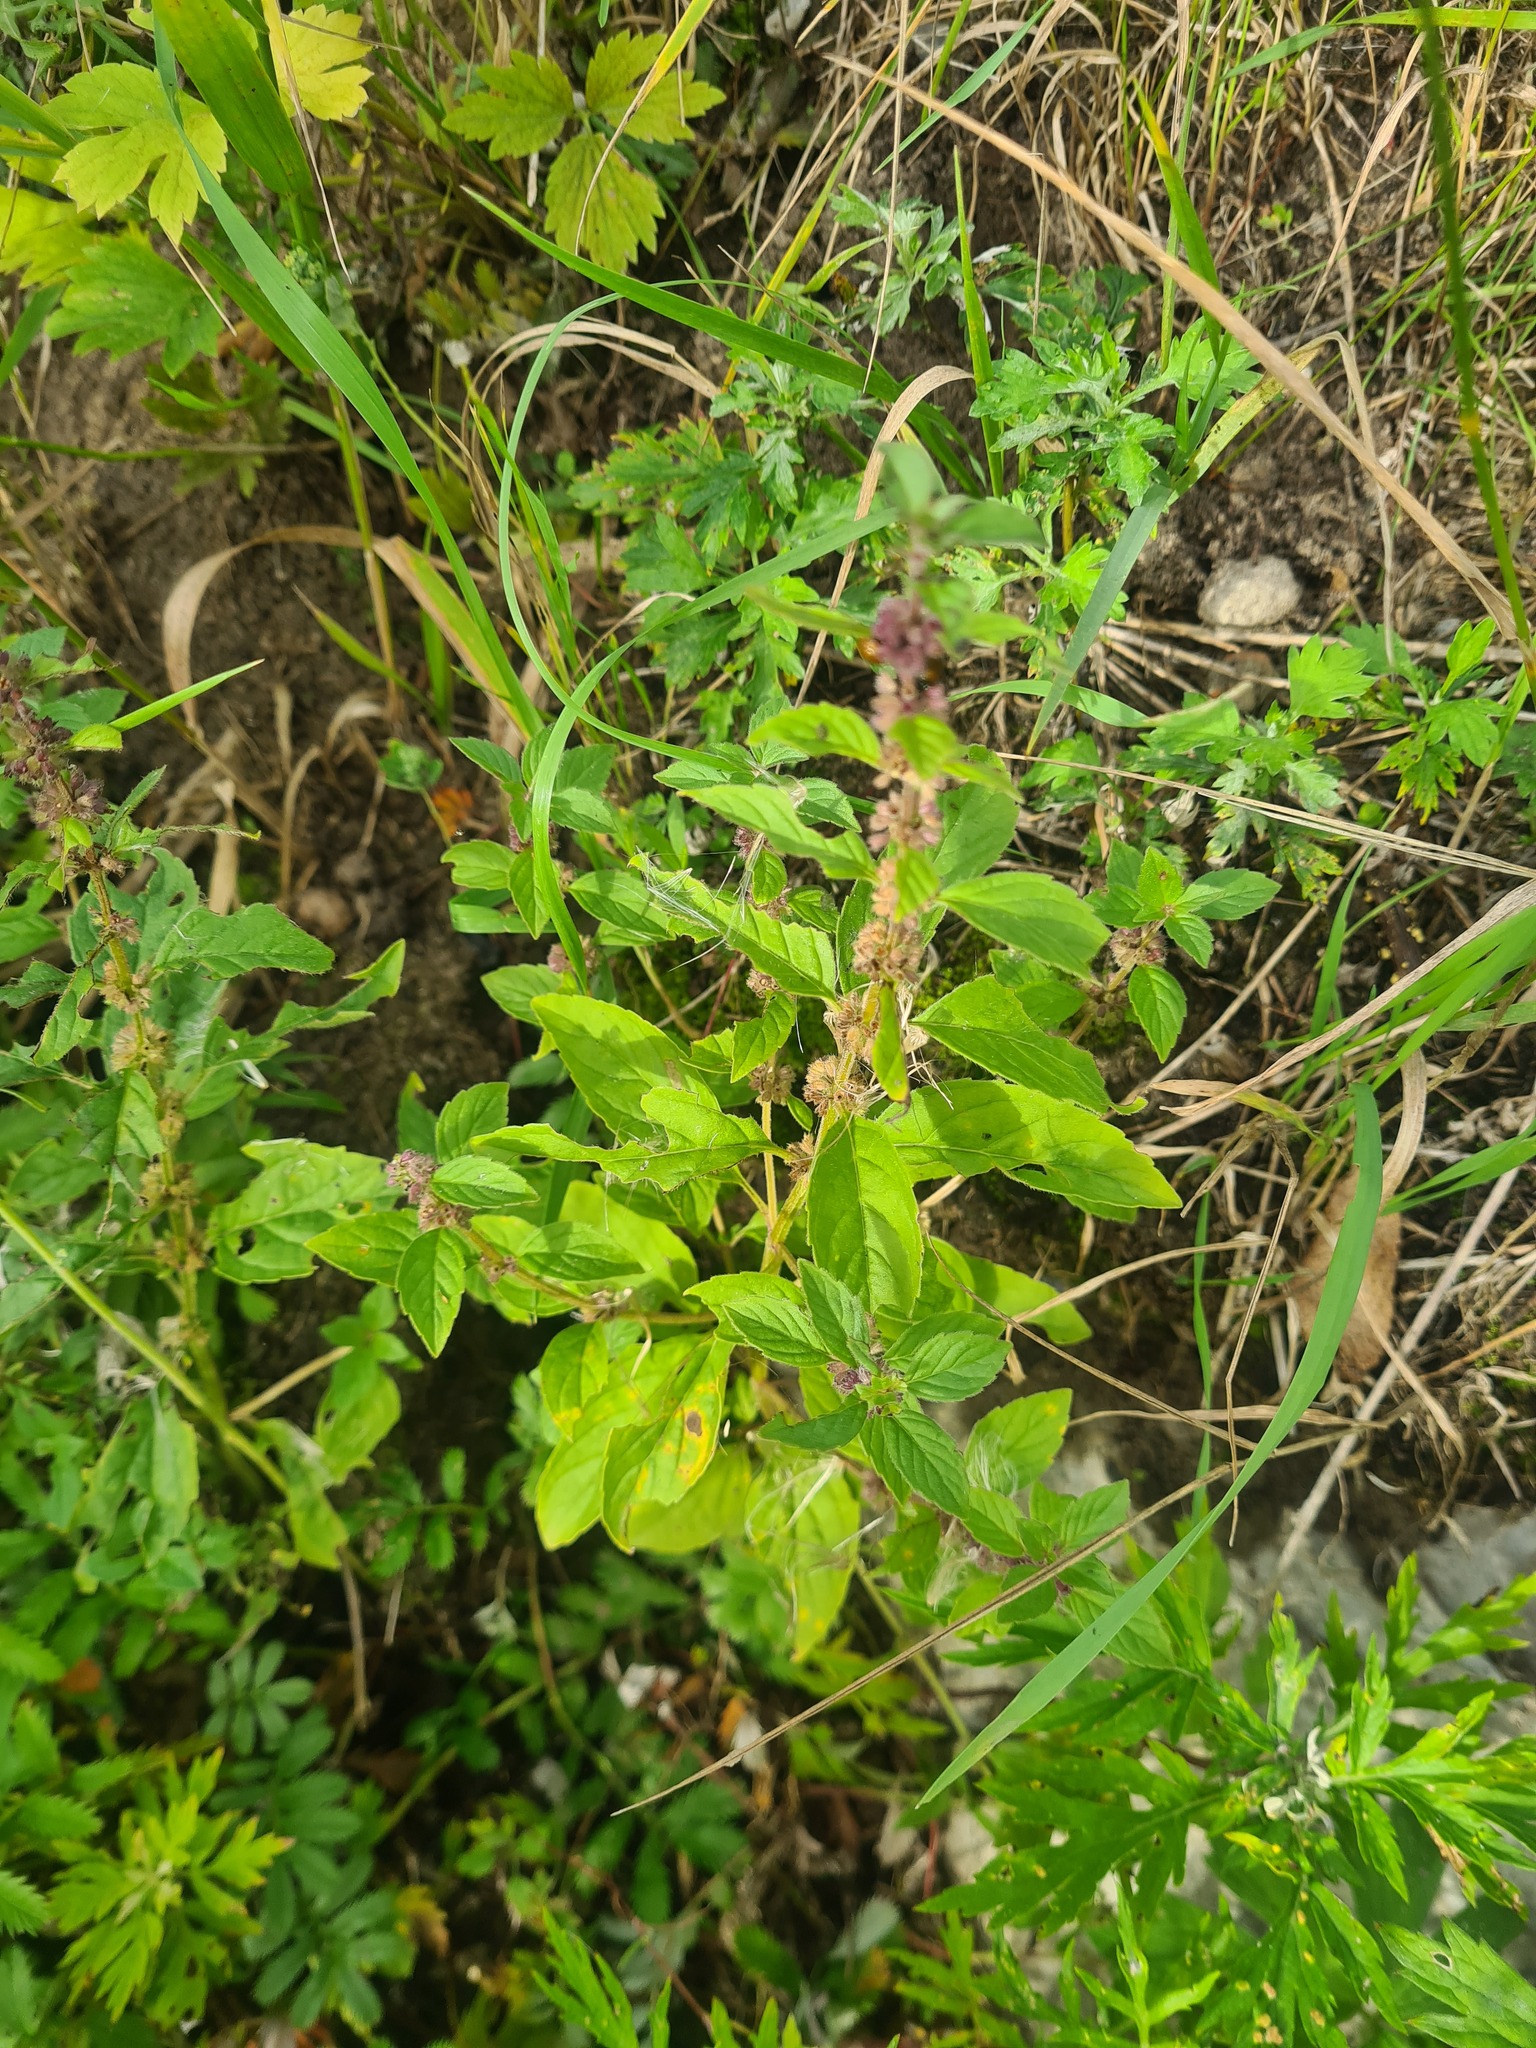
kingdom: Plantae
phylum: Tracheophyta
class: Magnoliopsida
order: Lamiales
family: Lamiaceae
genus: Mentha
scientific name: Mentha arvensis
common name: Corn mint
